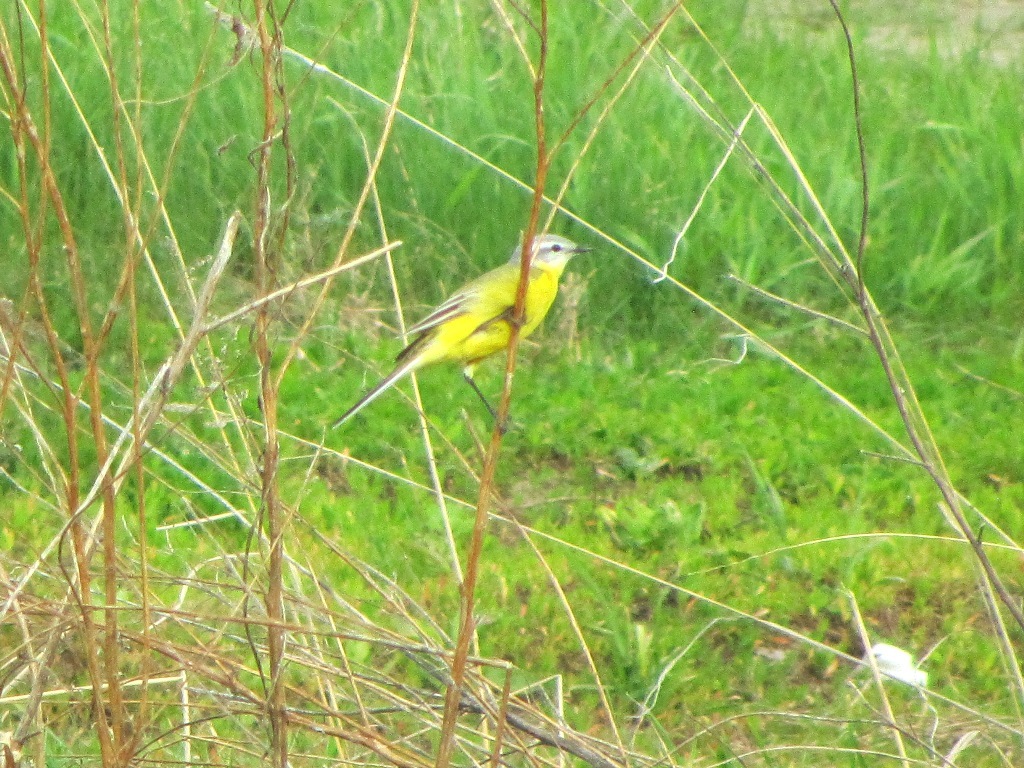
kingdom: Animalia
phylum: Chordata
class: Aves
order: Passeriformes
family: Motacillidae
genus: Motacilla
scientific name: Motacilla flava
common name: Western yellow wagtail
